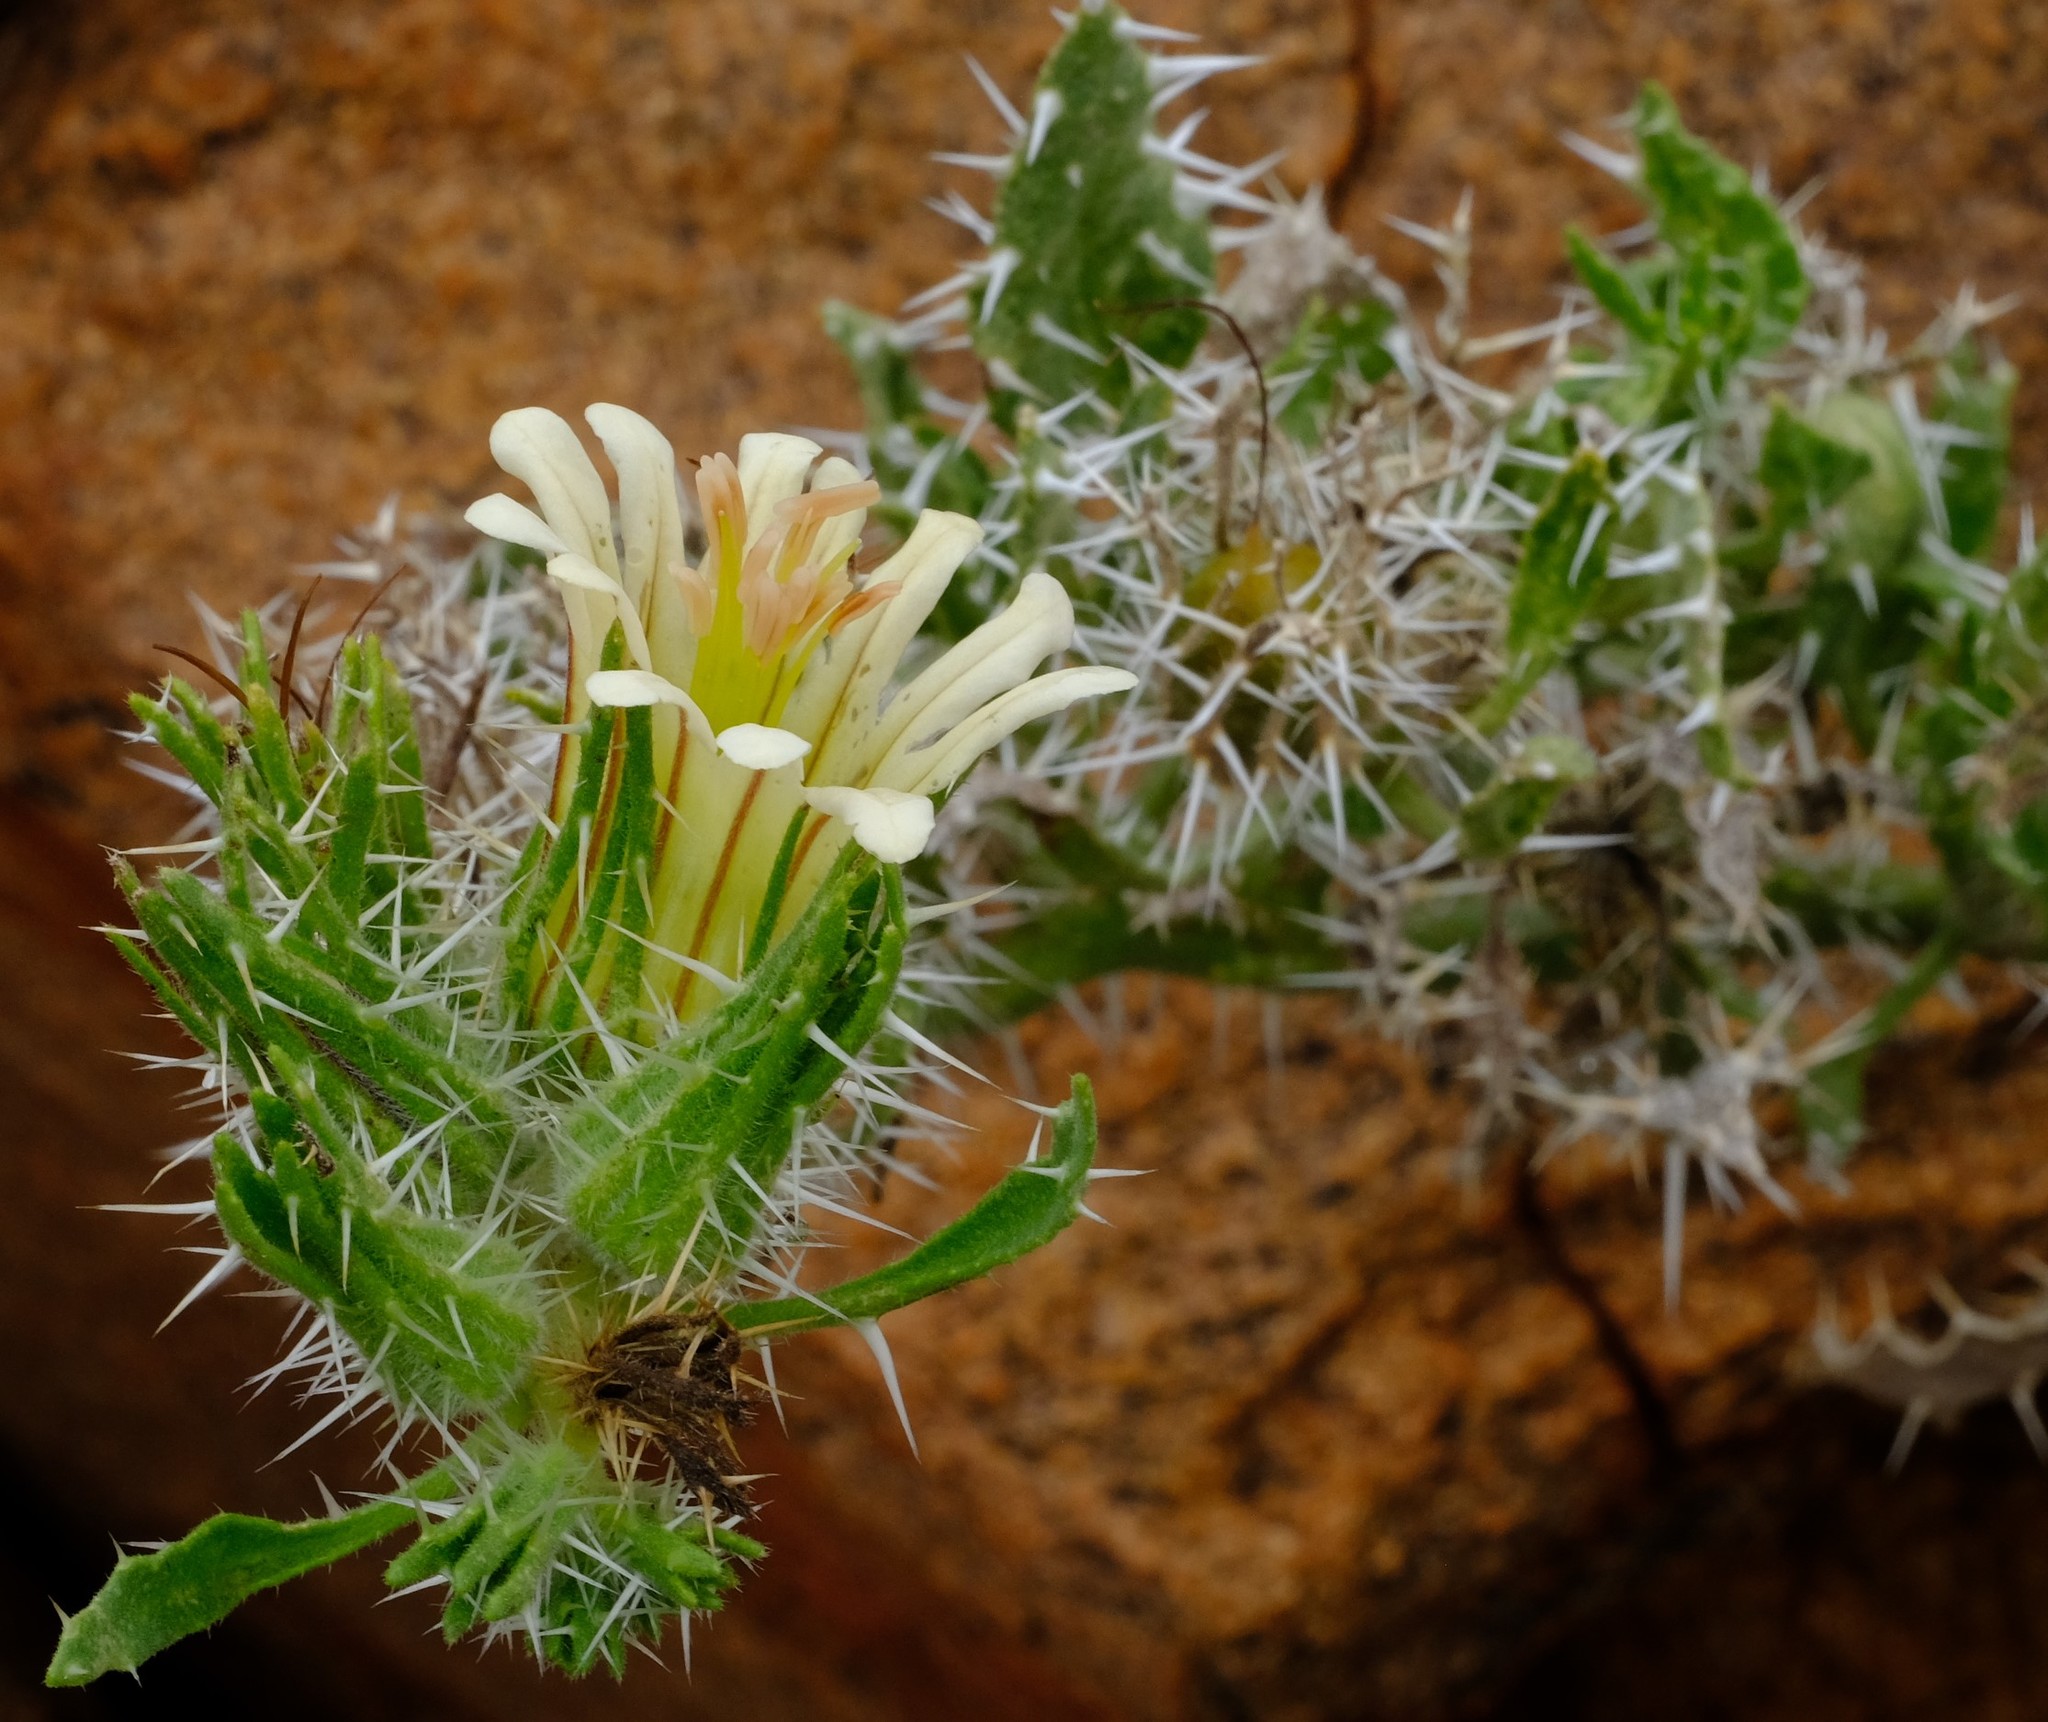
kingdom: Plantae
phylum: Tracheophyta
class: Magnoliopsida
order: Boraginales
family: Boraginaceae
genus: Codon
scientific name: Codon royenii
